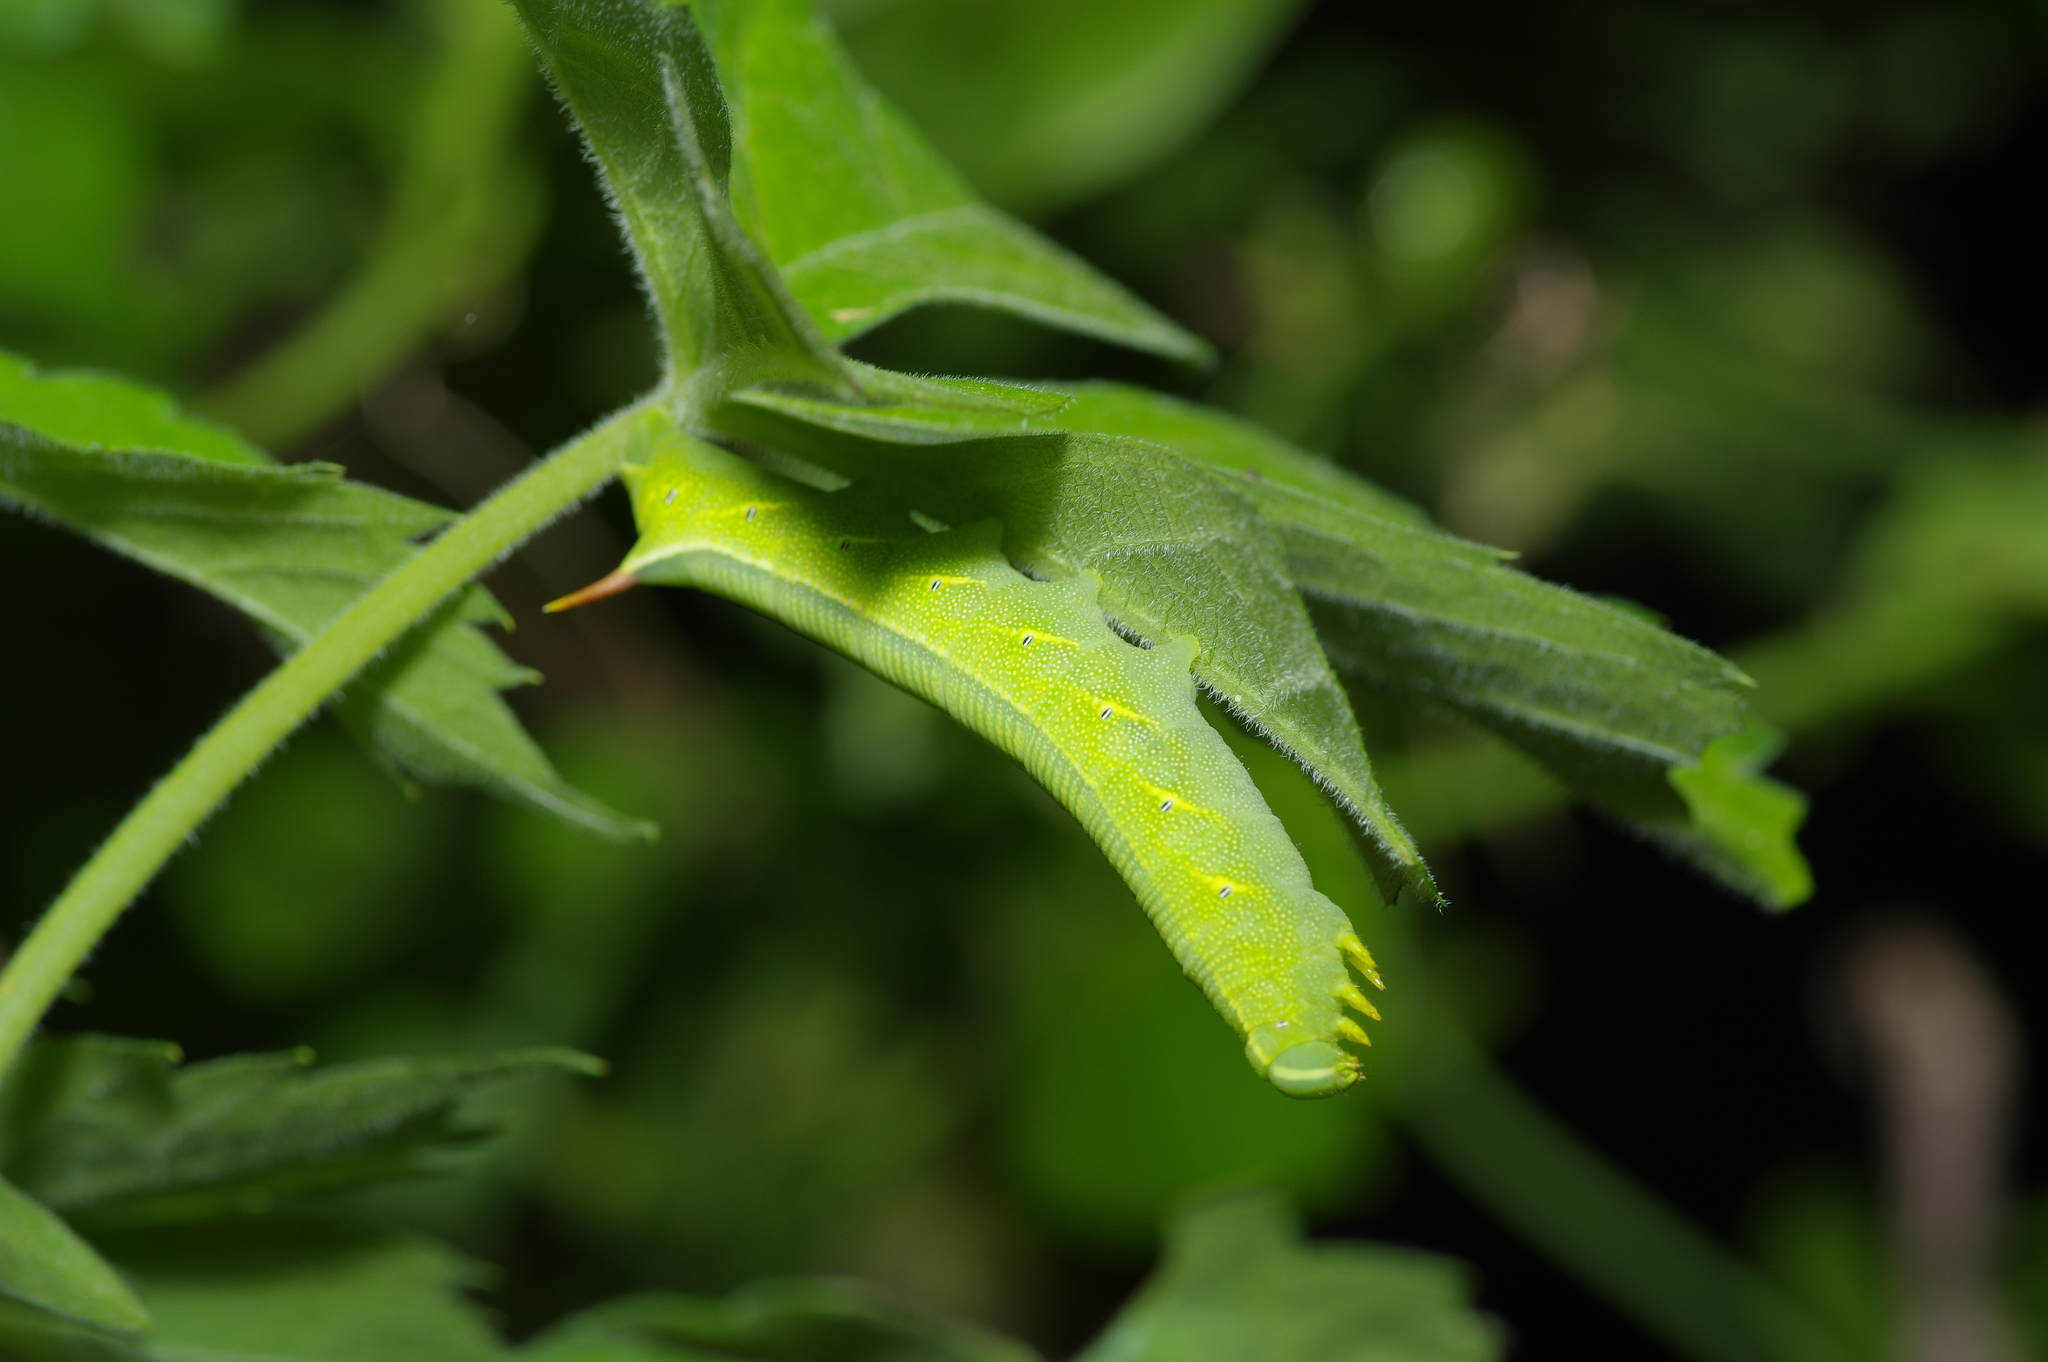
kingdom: Animalia
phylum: Arthropoda
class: Insecta
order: Lepidoptera
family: Sphingidae
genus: Deidamia
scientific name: Deidamia inscriptum
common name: Lettered sphinx
